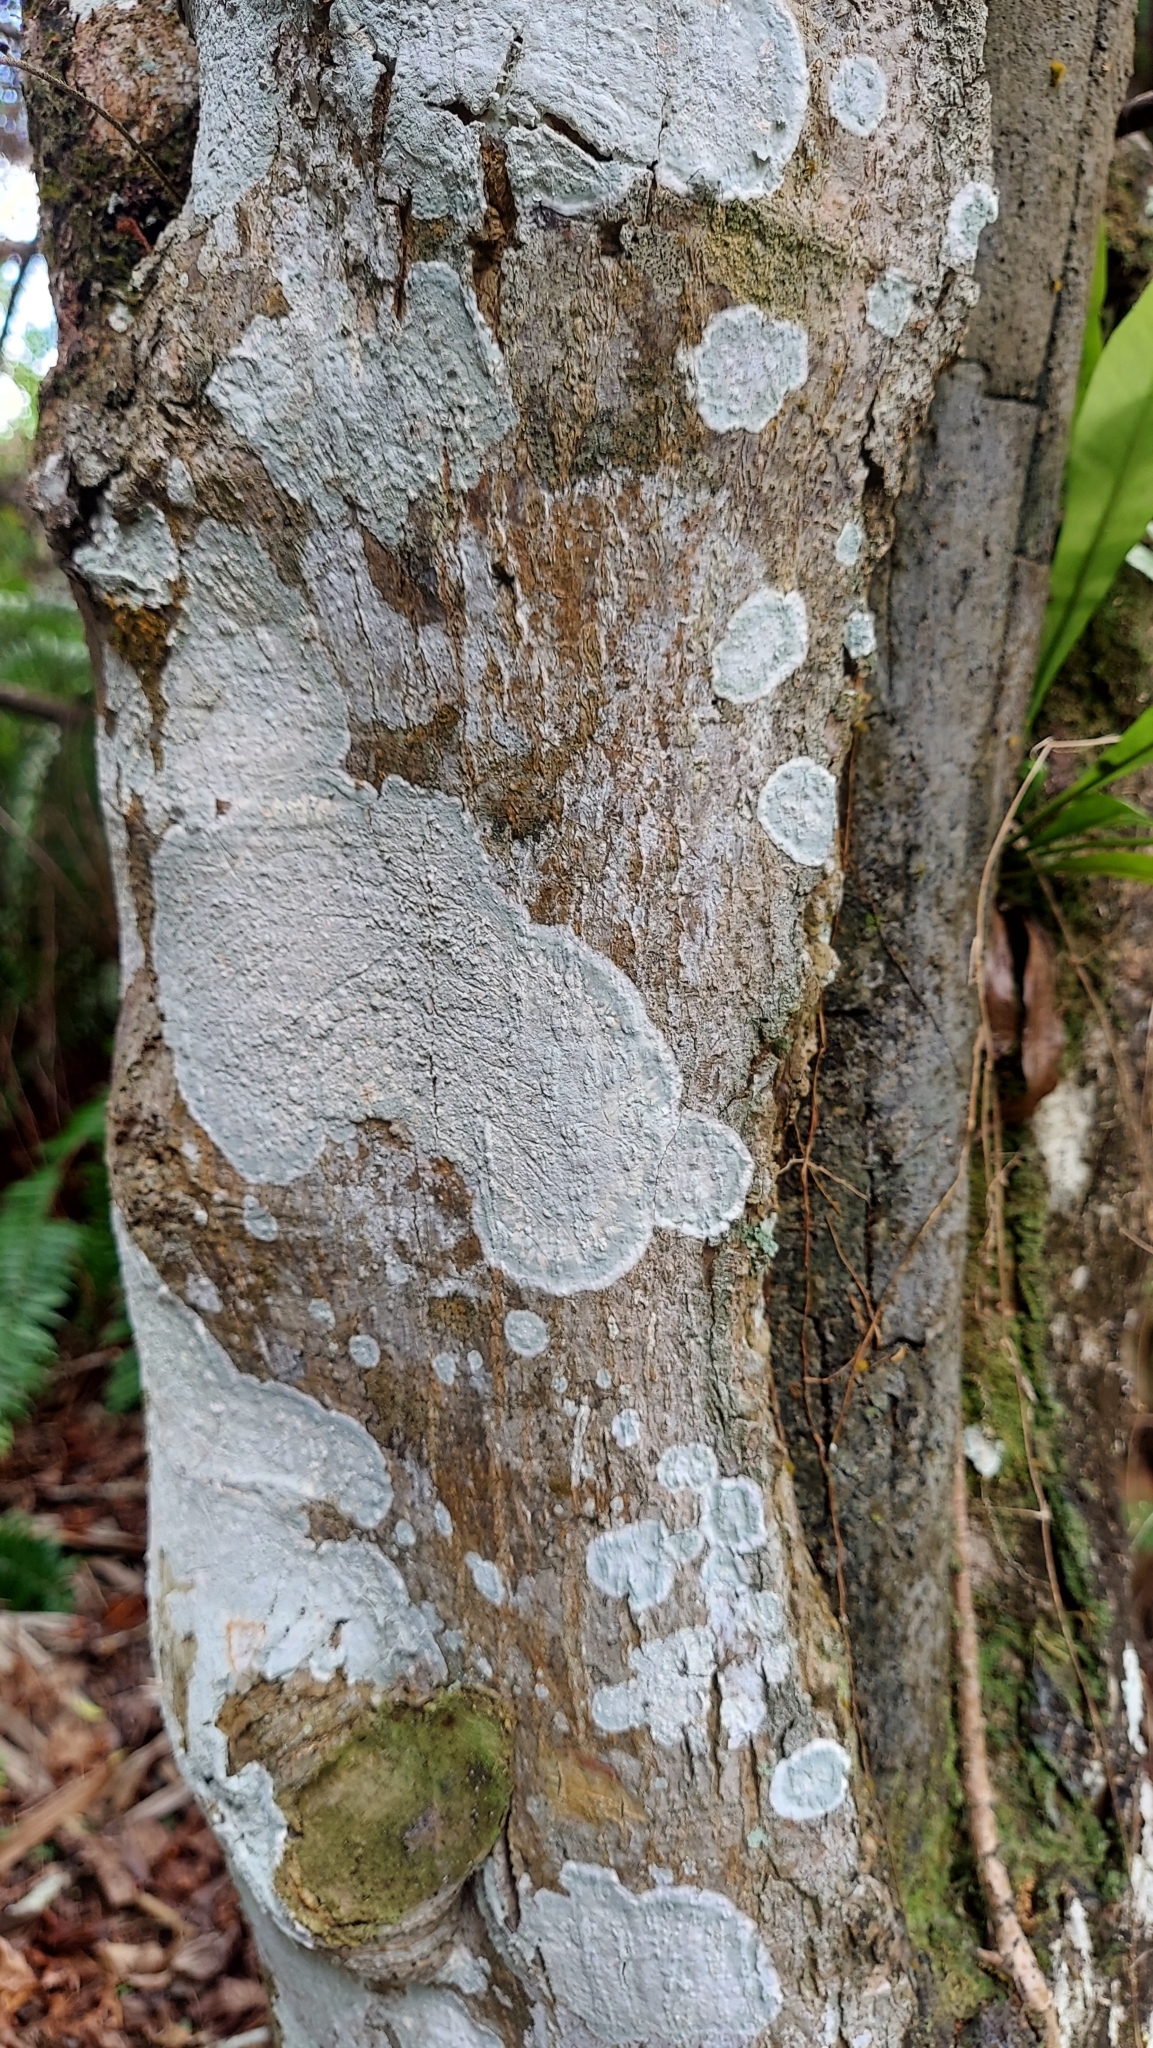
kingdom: Plantae
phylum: Tracheophyta
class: Magnoliopsida
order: Fabales
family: Fabaceae
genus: Piscidia
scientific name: Piscidia piscipula
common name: Florida fishpoison tree
